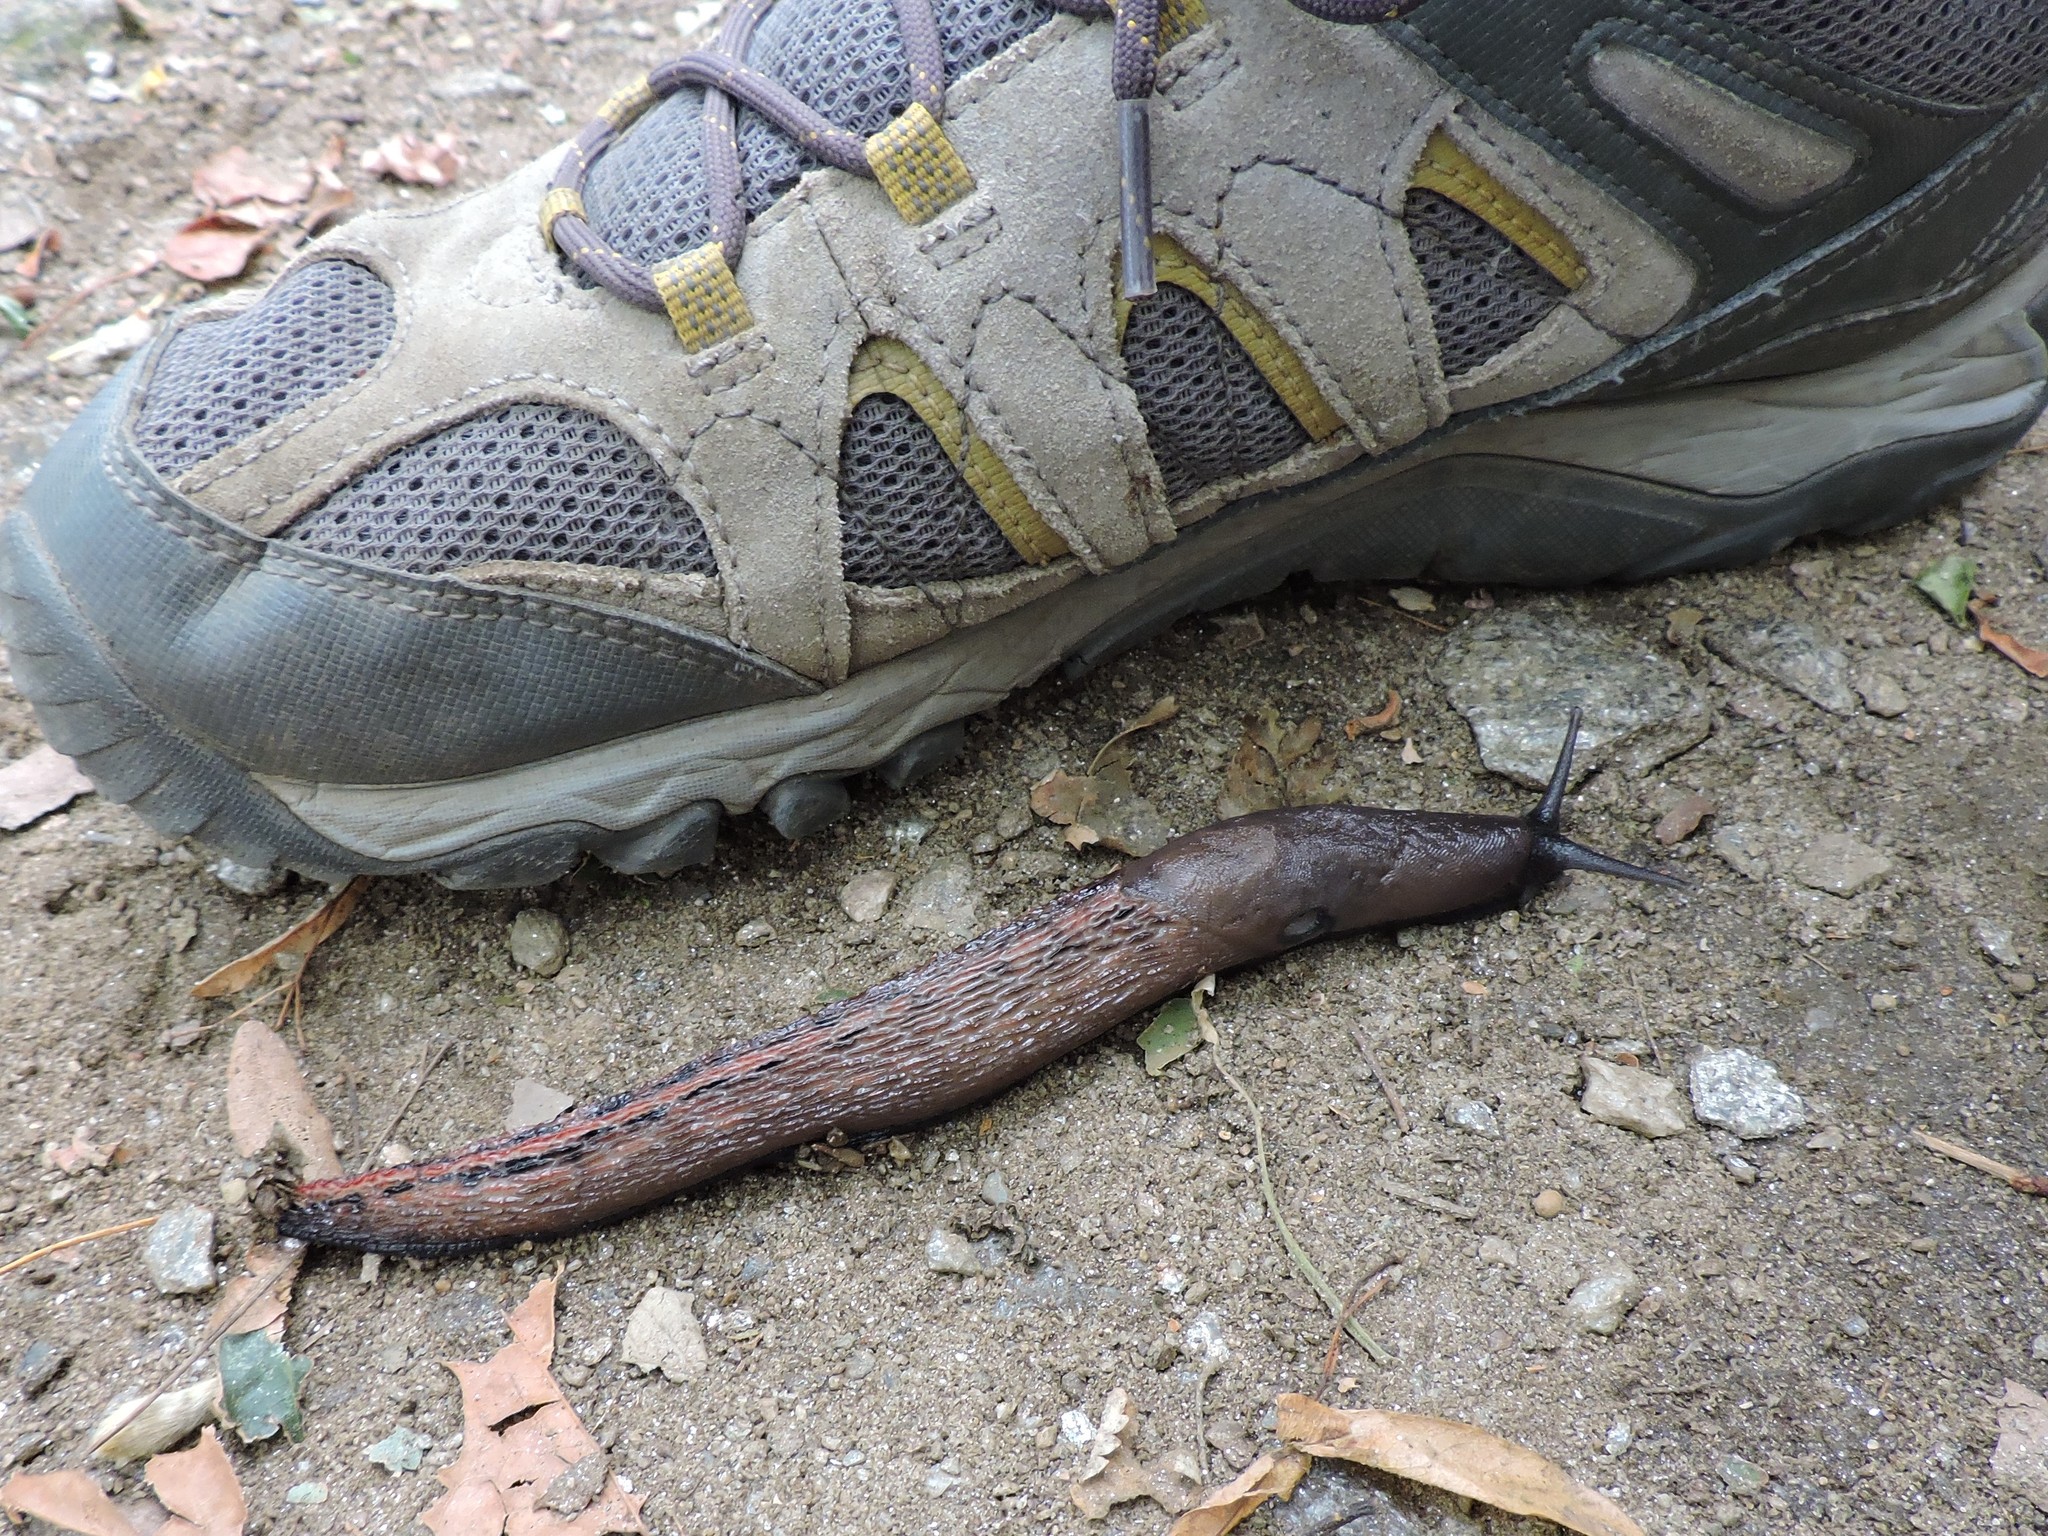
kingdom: Animalia
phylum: Mollusca
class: Gastropoda
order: Stylommatophora
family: Limacidae
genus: Limax
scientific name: Limax dacampi
